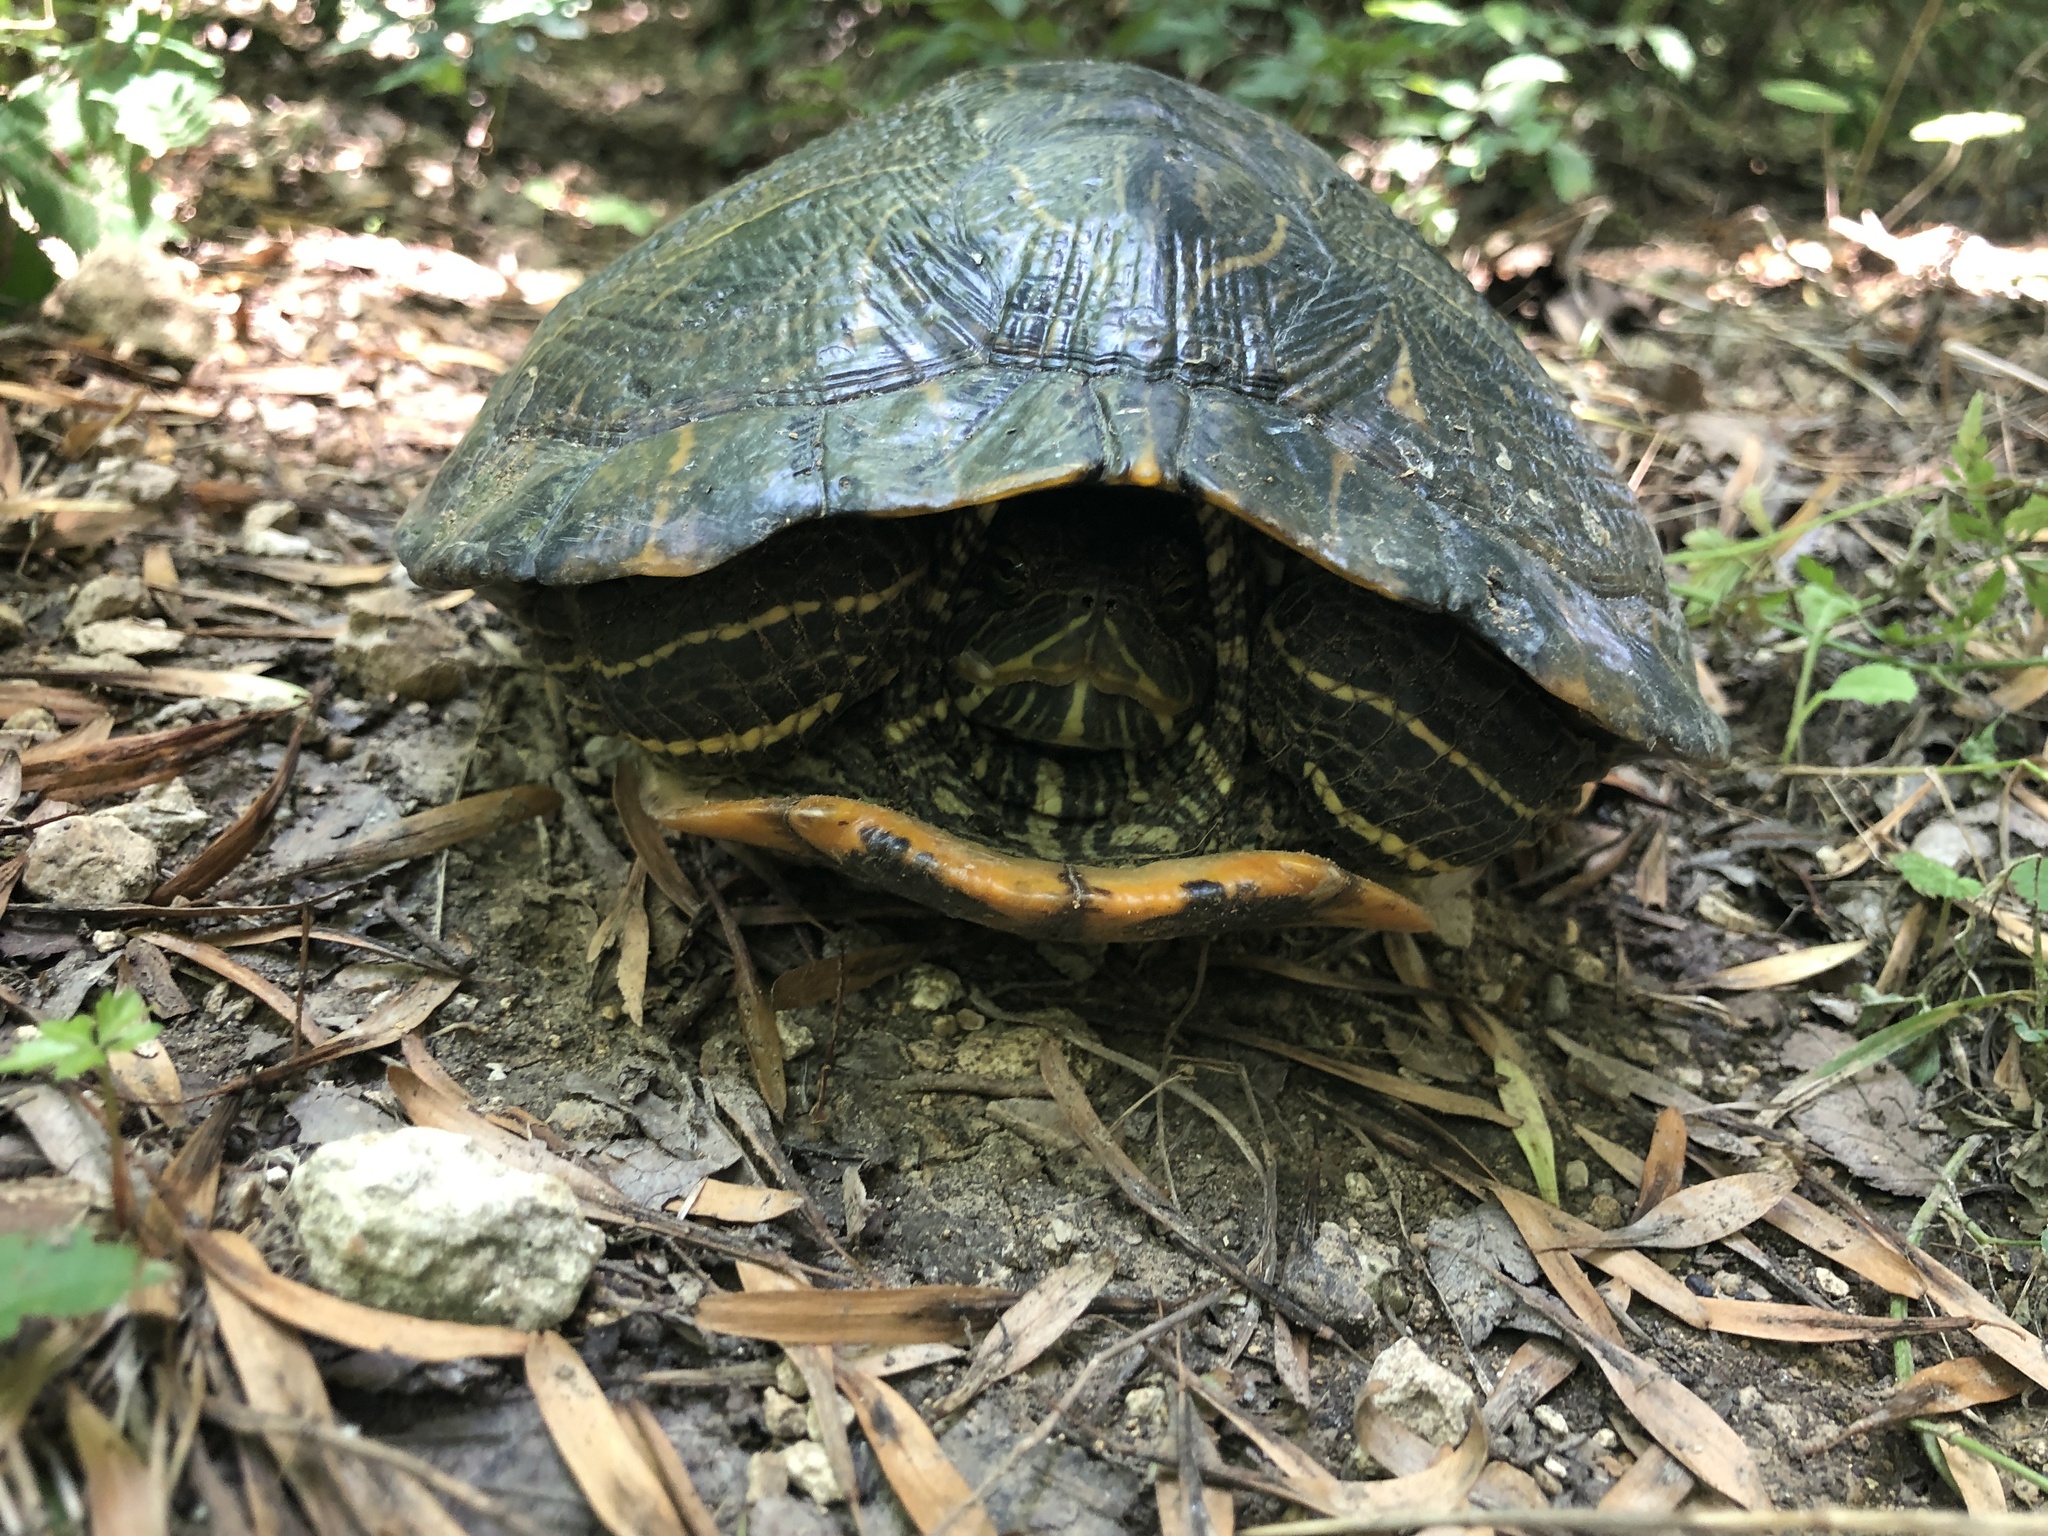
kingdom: Animalia
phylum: Chordata
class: Testudines
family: Emydidae
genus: Trachemys
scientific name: Trachemys scripta
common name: Slider
